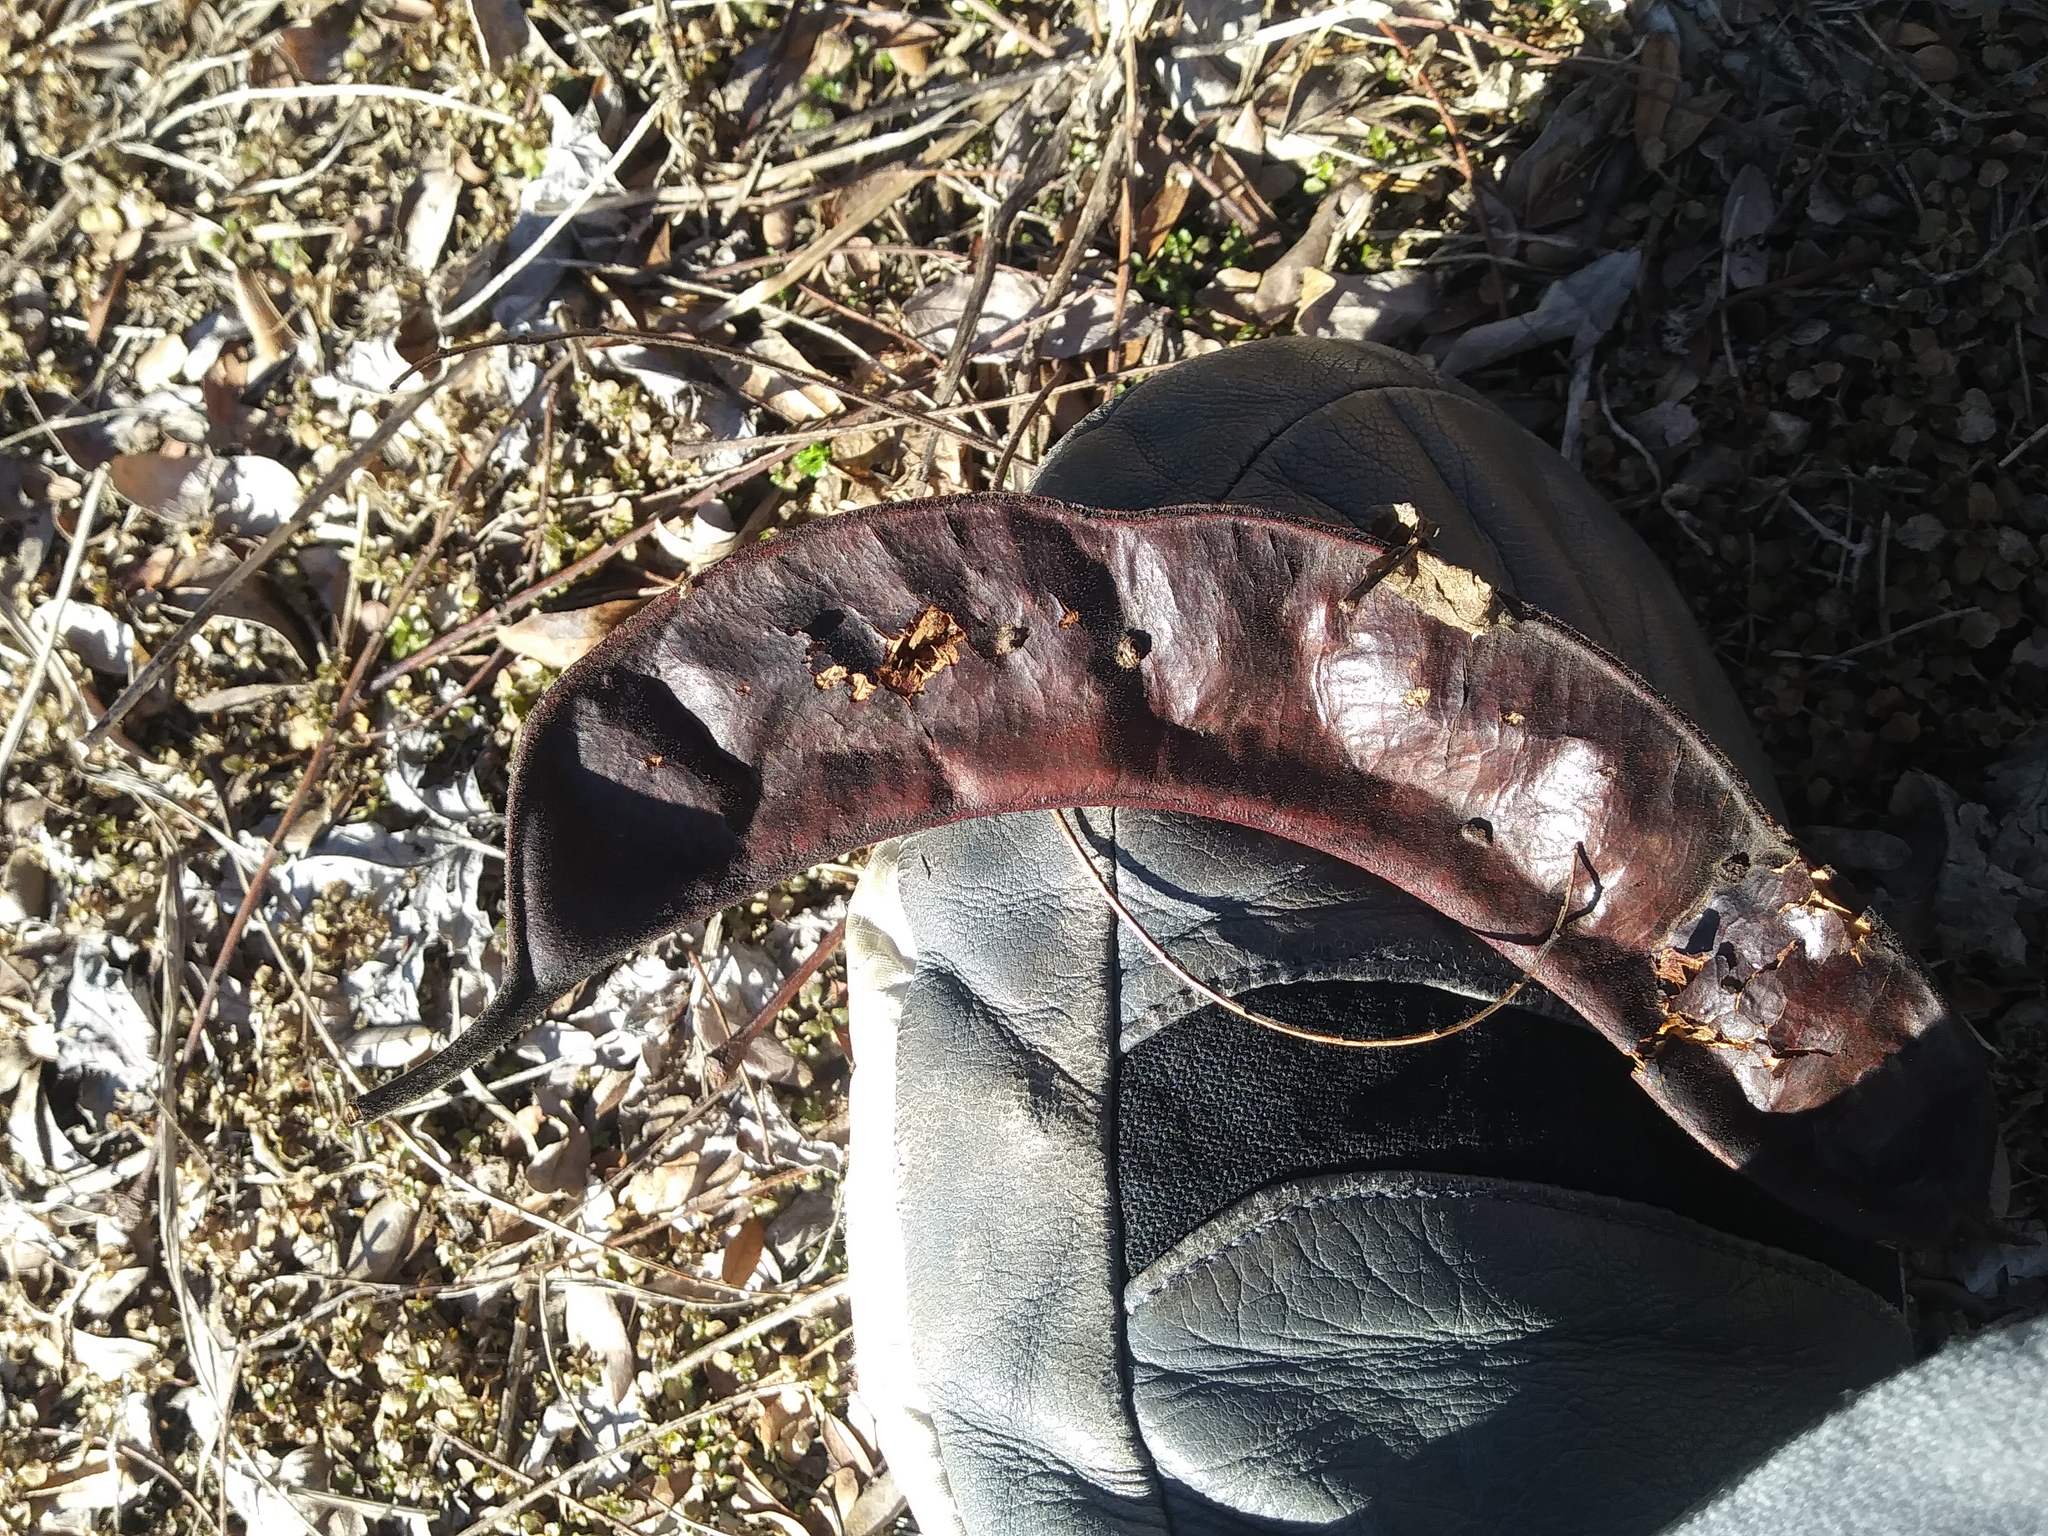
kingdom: Plantae
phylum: Tracheophyta
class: Magnoliopsida
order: Fabales
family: Fabaceae
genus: Gleditsia
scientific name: Gleditsia triacanthos
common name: Common honeylocust
